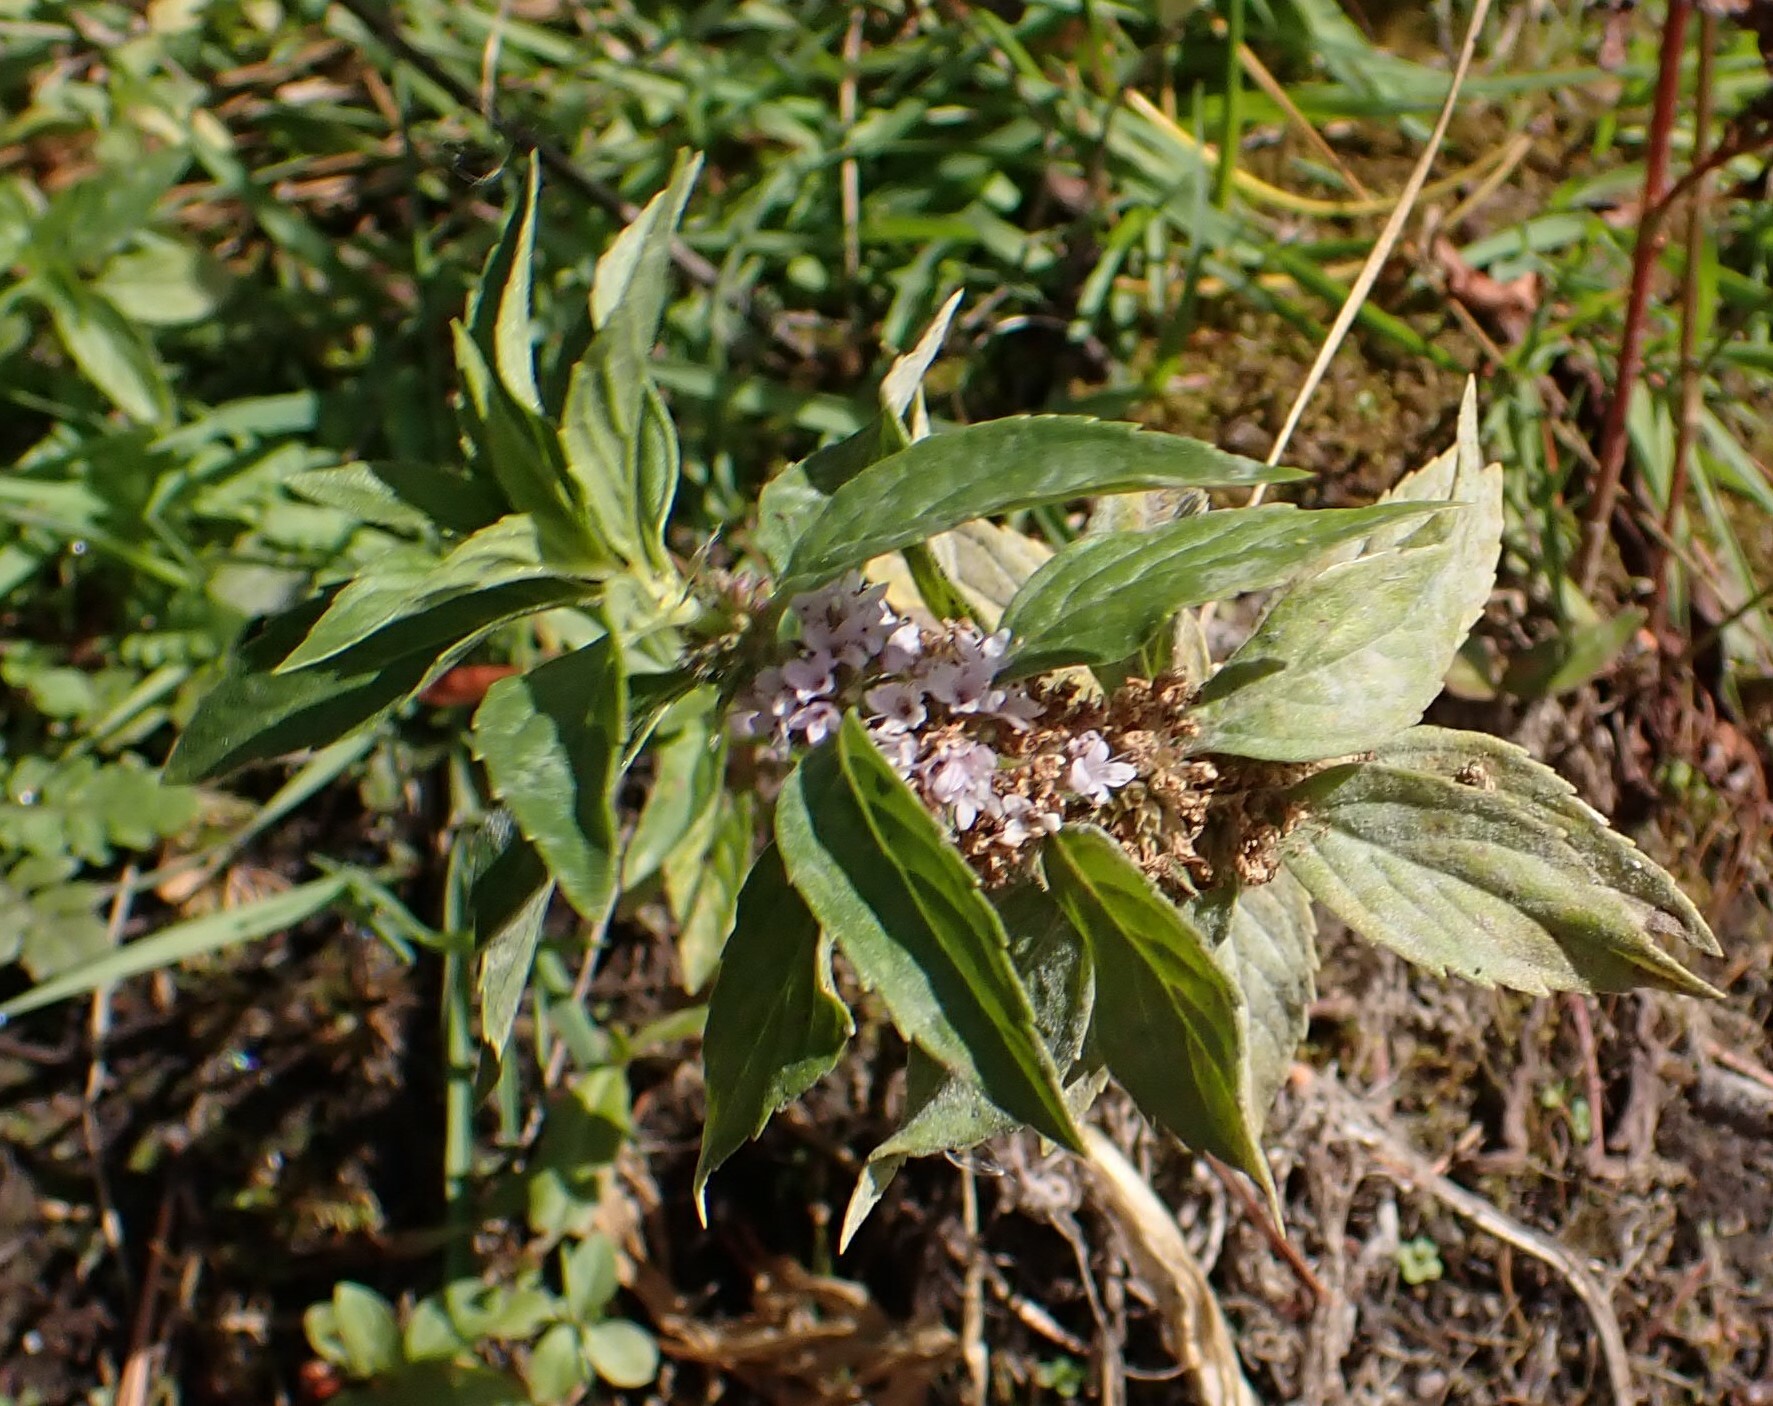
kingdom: Plantae
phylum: Tracheophyta
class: Magnoliopsida
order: Lamiales
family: Lamiaceae
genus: Mentha
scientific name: Mentha canadensis
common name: American corn mint
